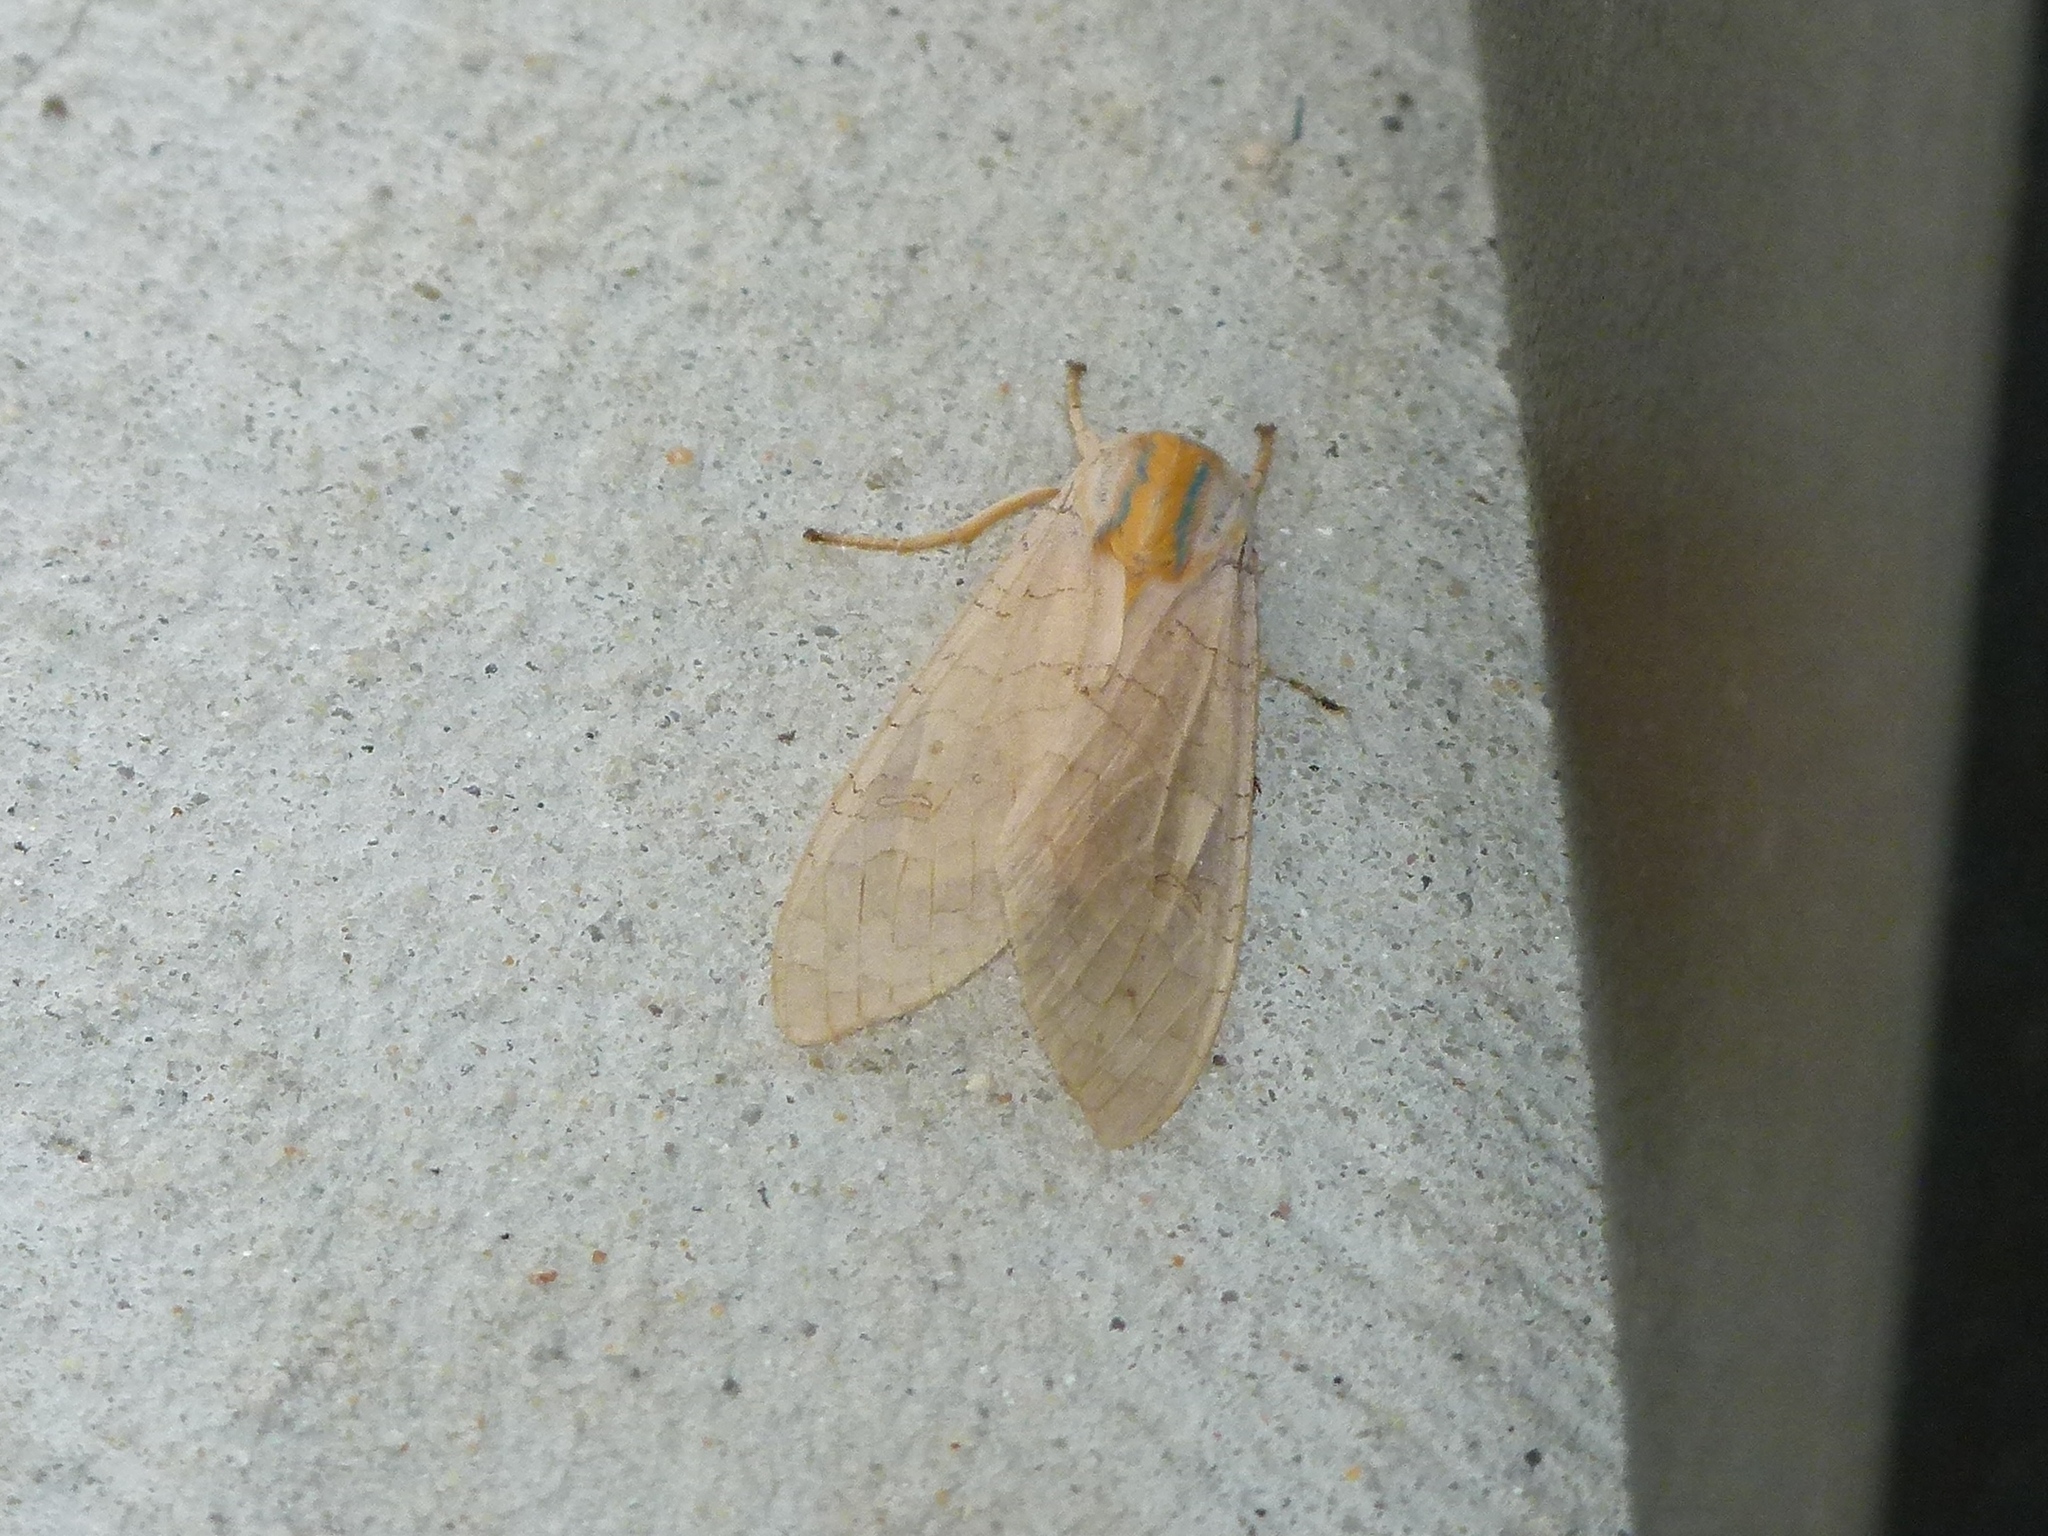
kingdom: Animalia
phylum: Arthropoda
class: Insecta
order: Lepidoptera
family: Erebidae
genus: Halysidota
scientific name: Halysidota
